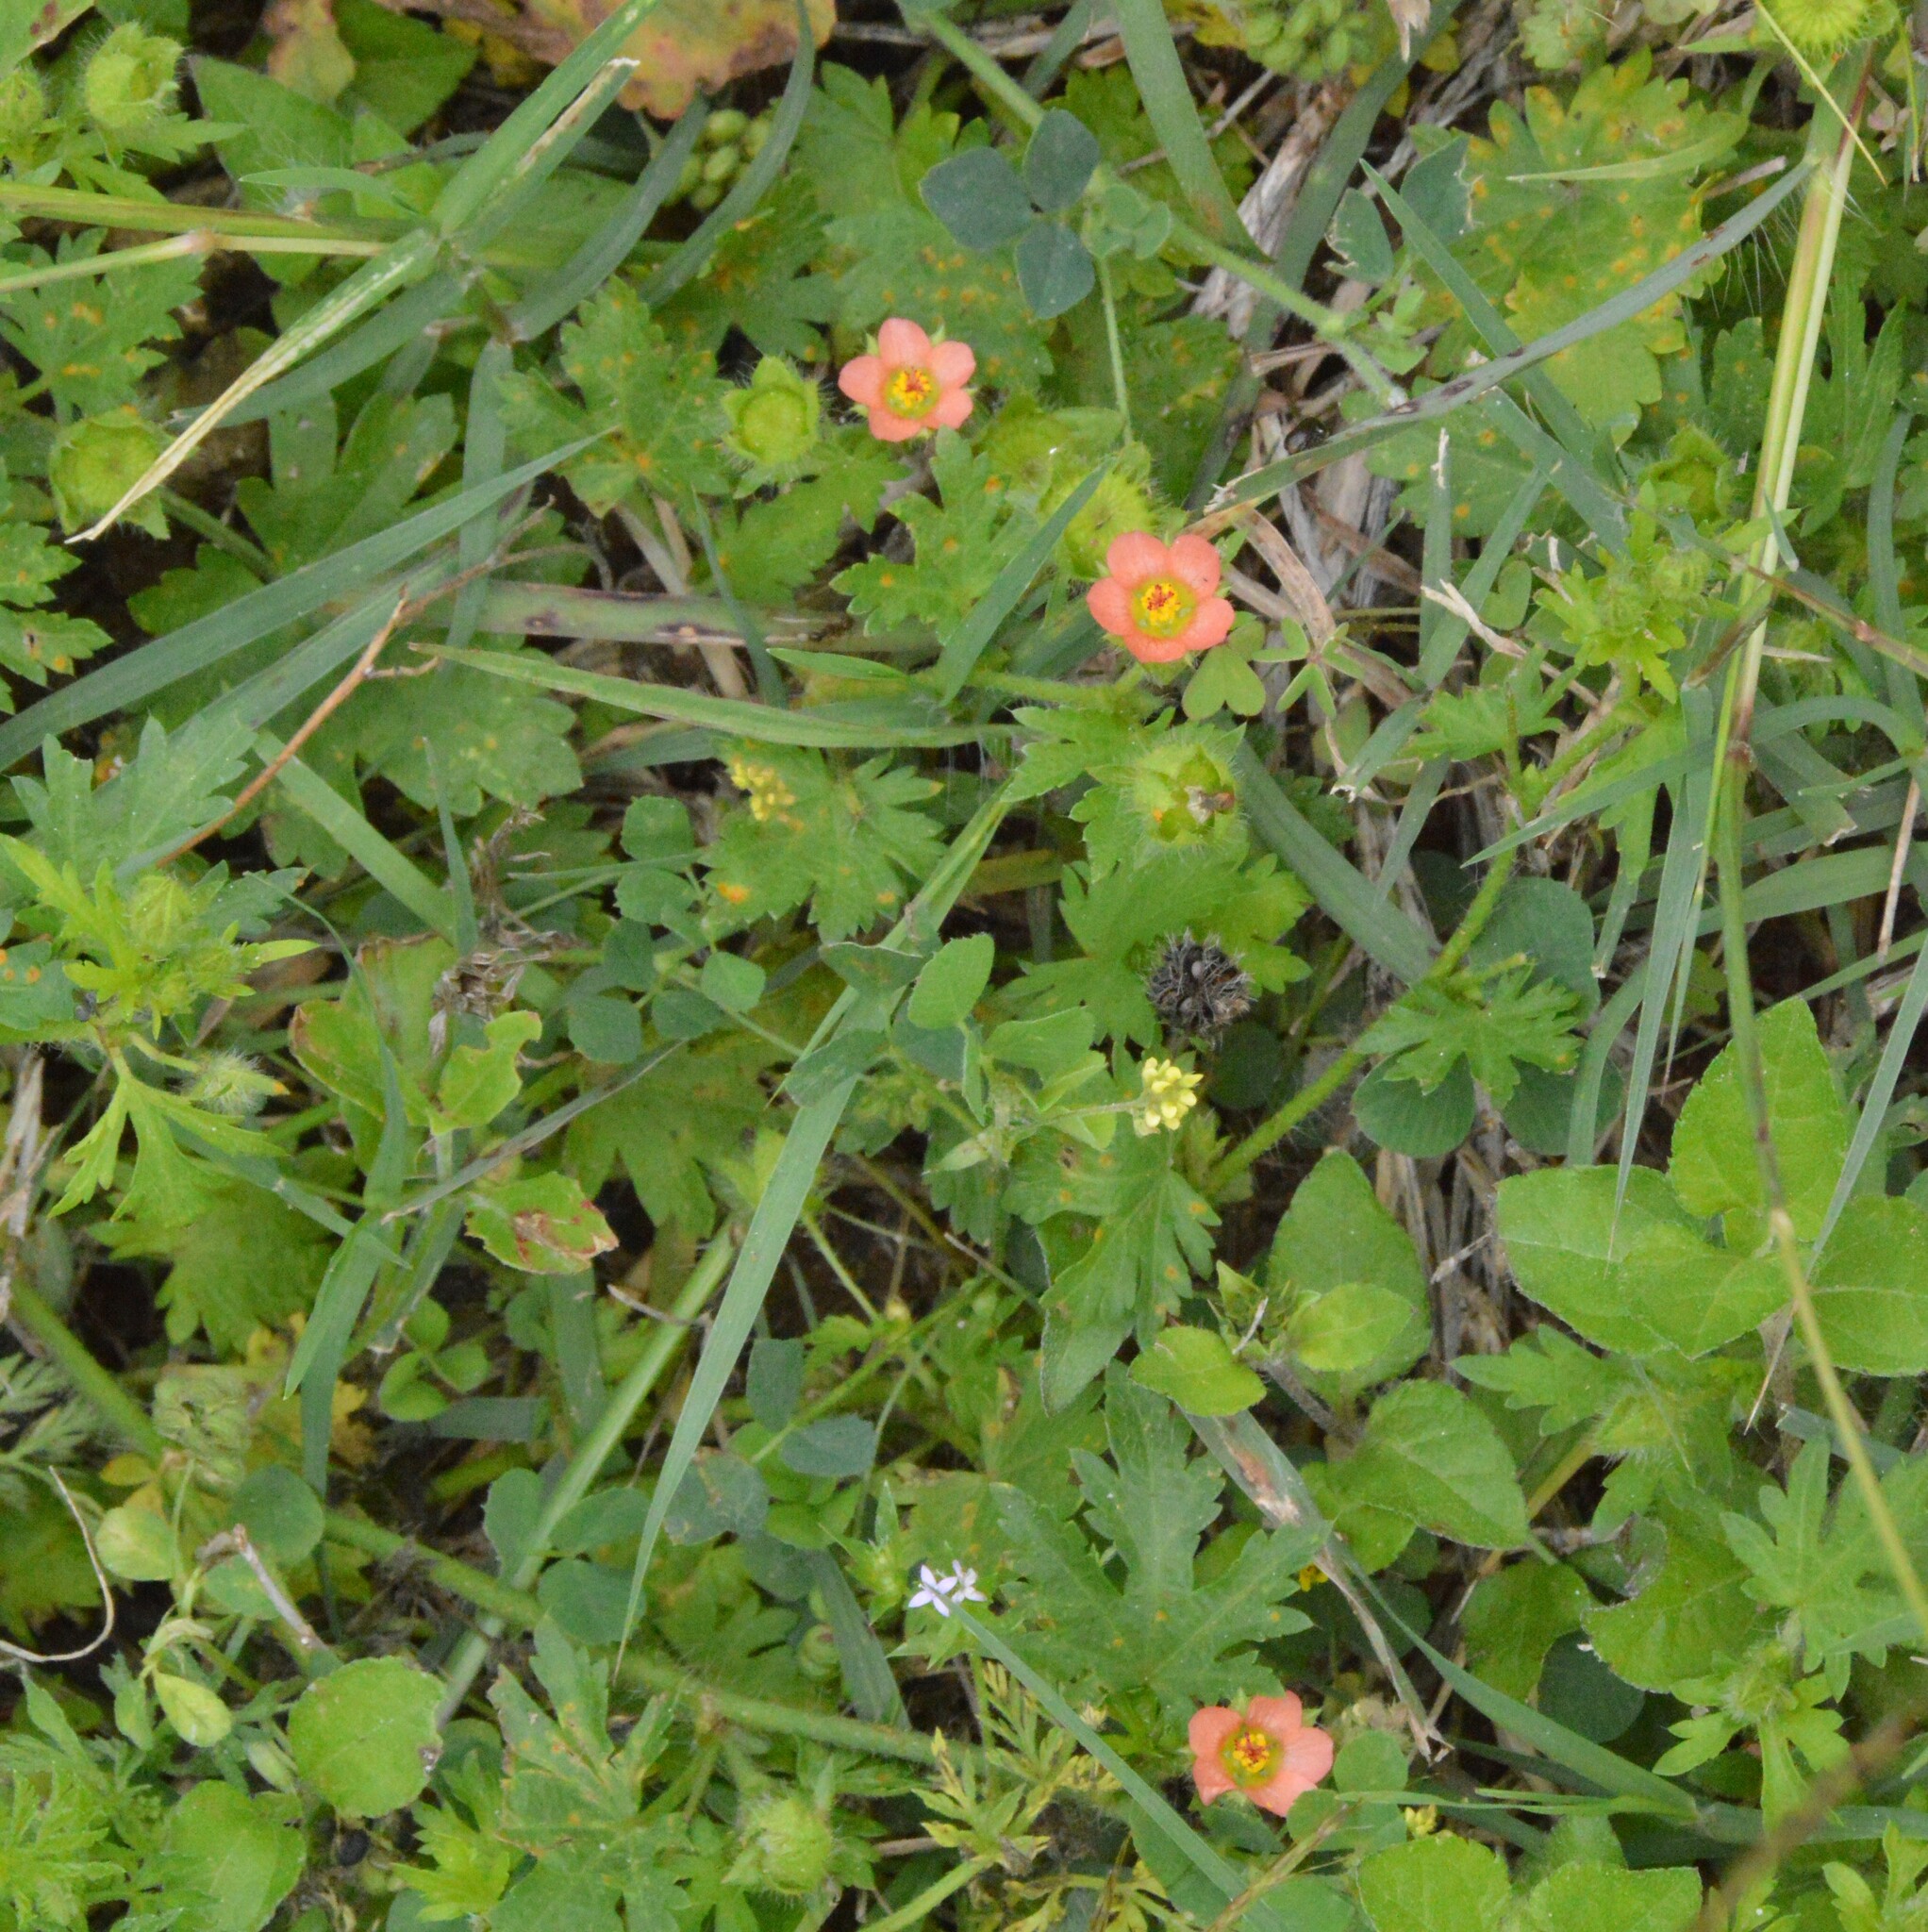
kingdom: Plantae
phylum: Tracheophyta
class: Magnoliopsida
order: Malvales
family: Malvaceae
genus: Modiola
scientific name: Modiola caroliniana
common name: Carolina bristlemallow
